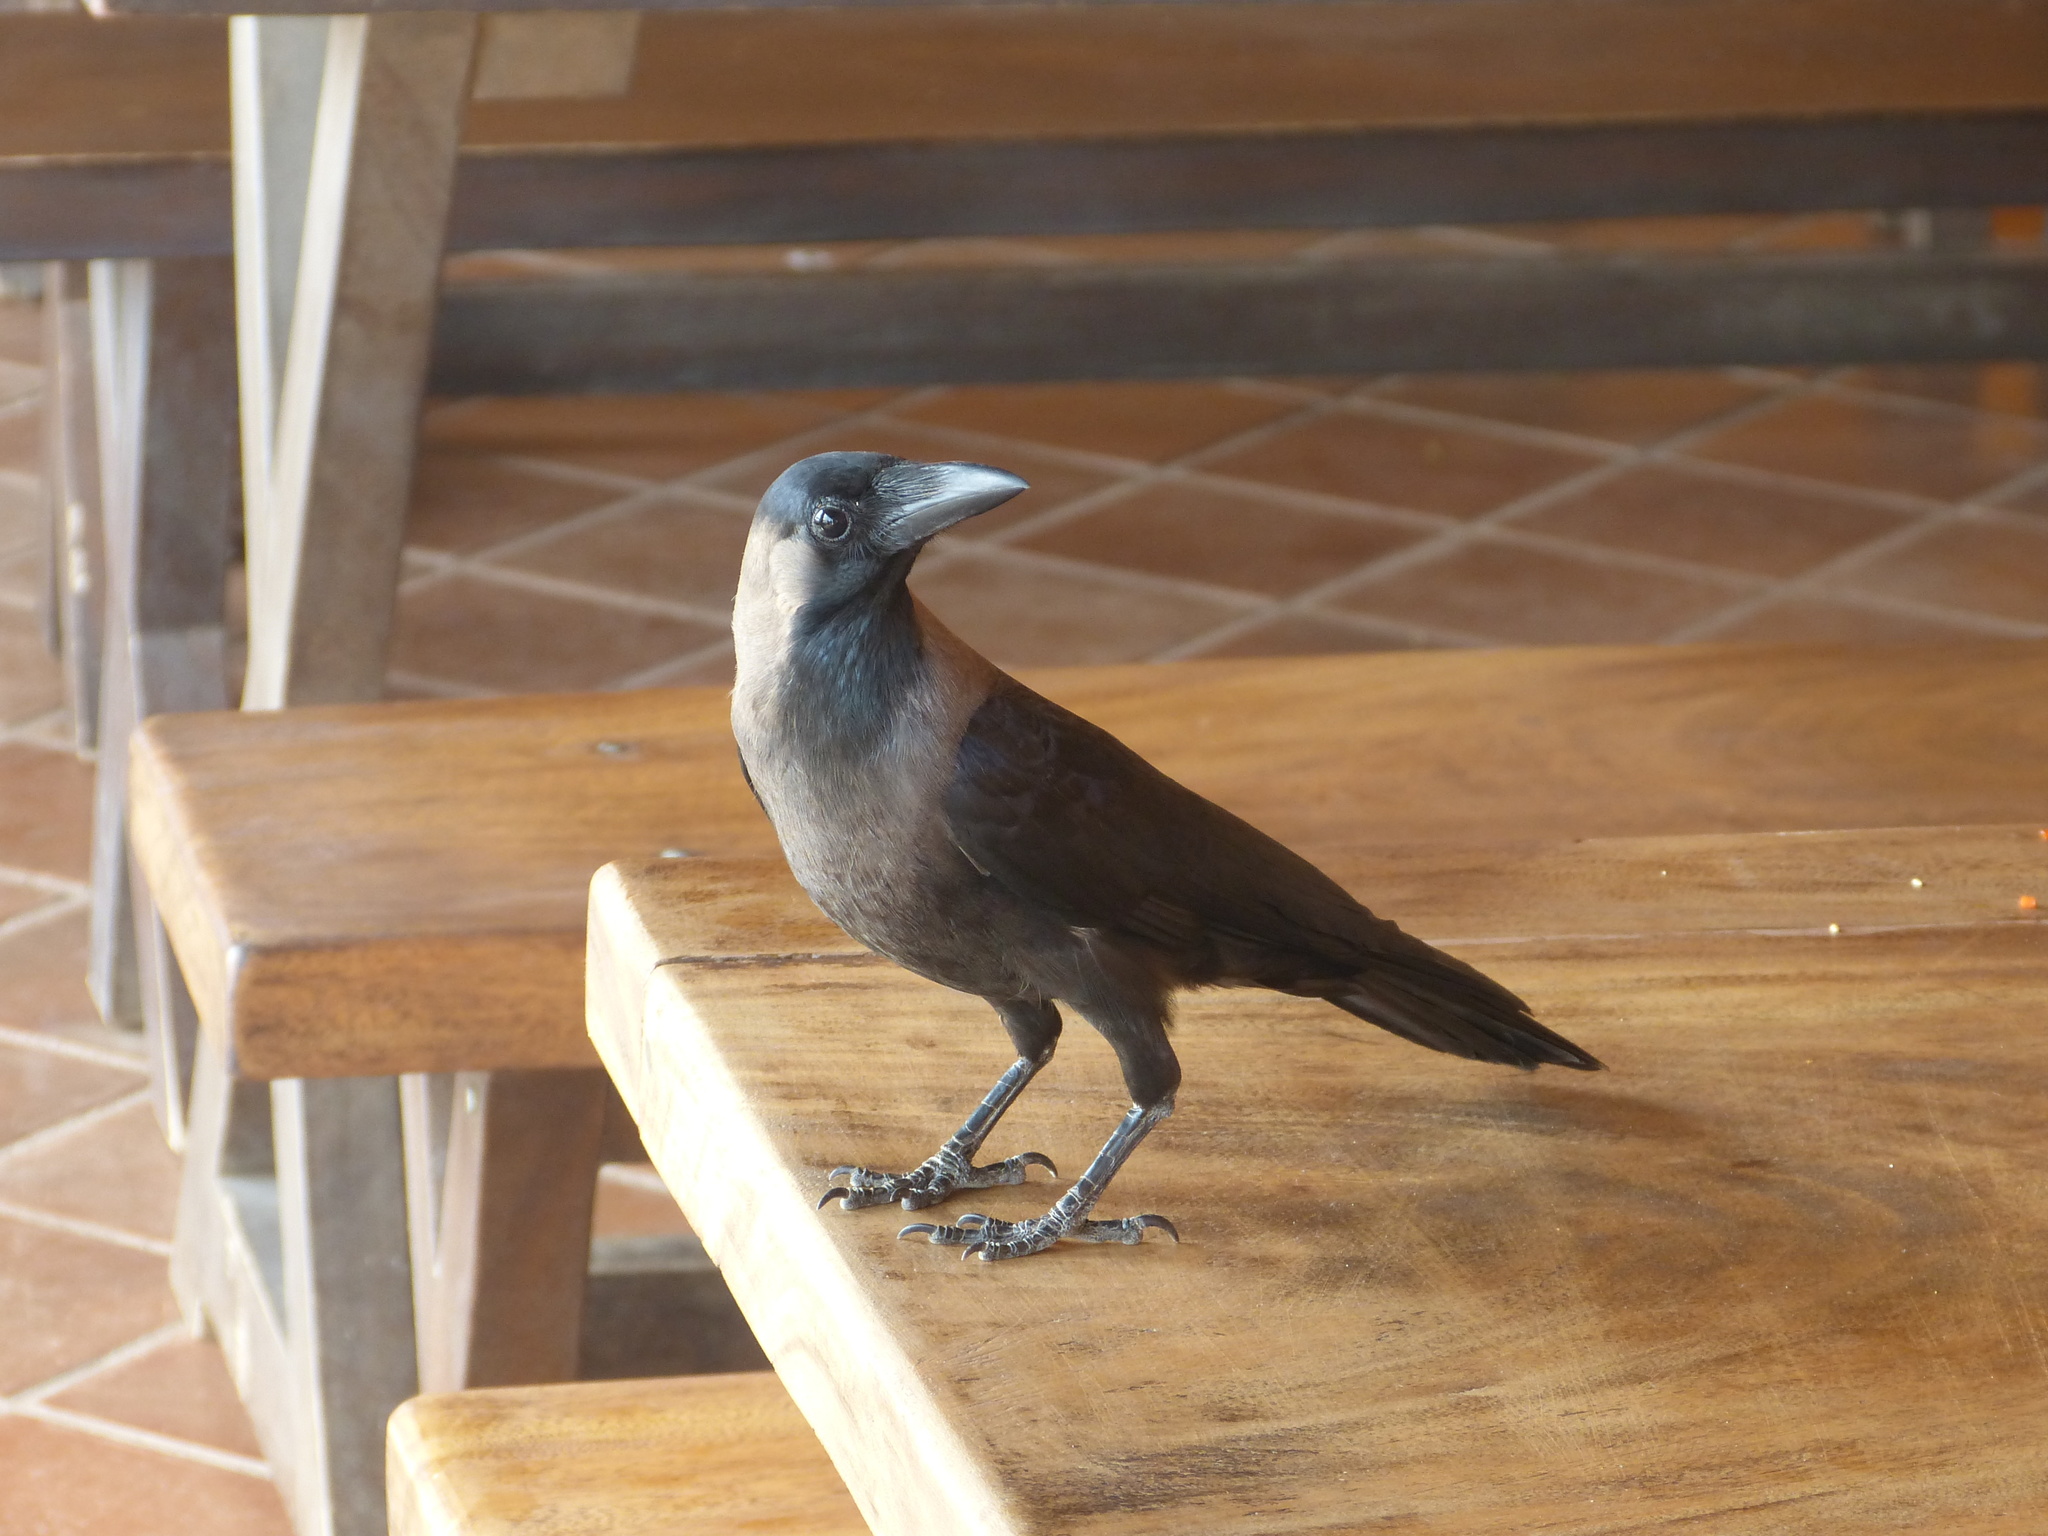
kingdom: Animalia
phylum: Chordata
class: Aves
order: Passeriformes
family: Corvidae
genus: Corvus
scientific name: Corvus splendens
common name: House crow
